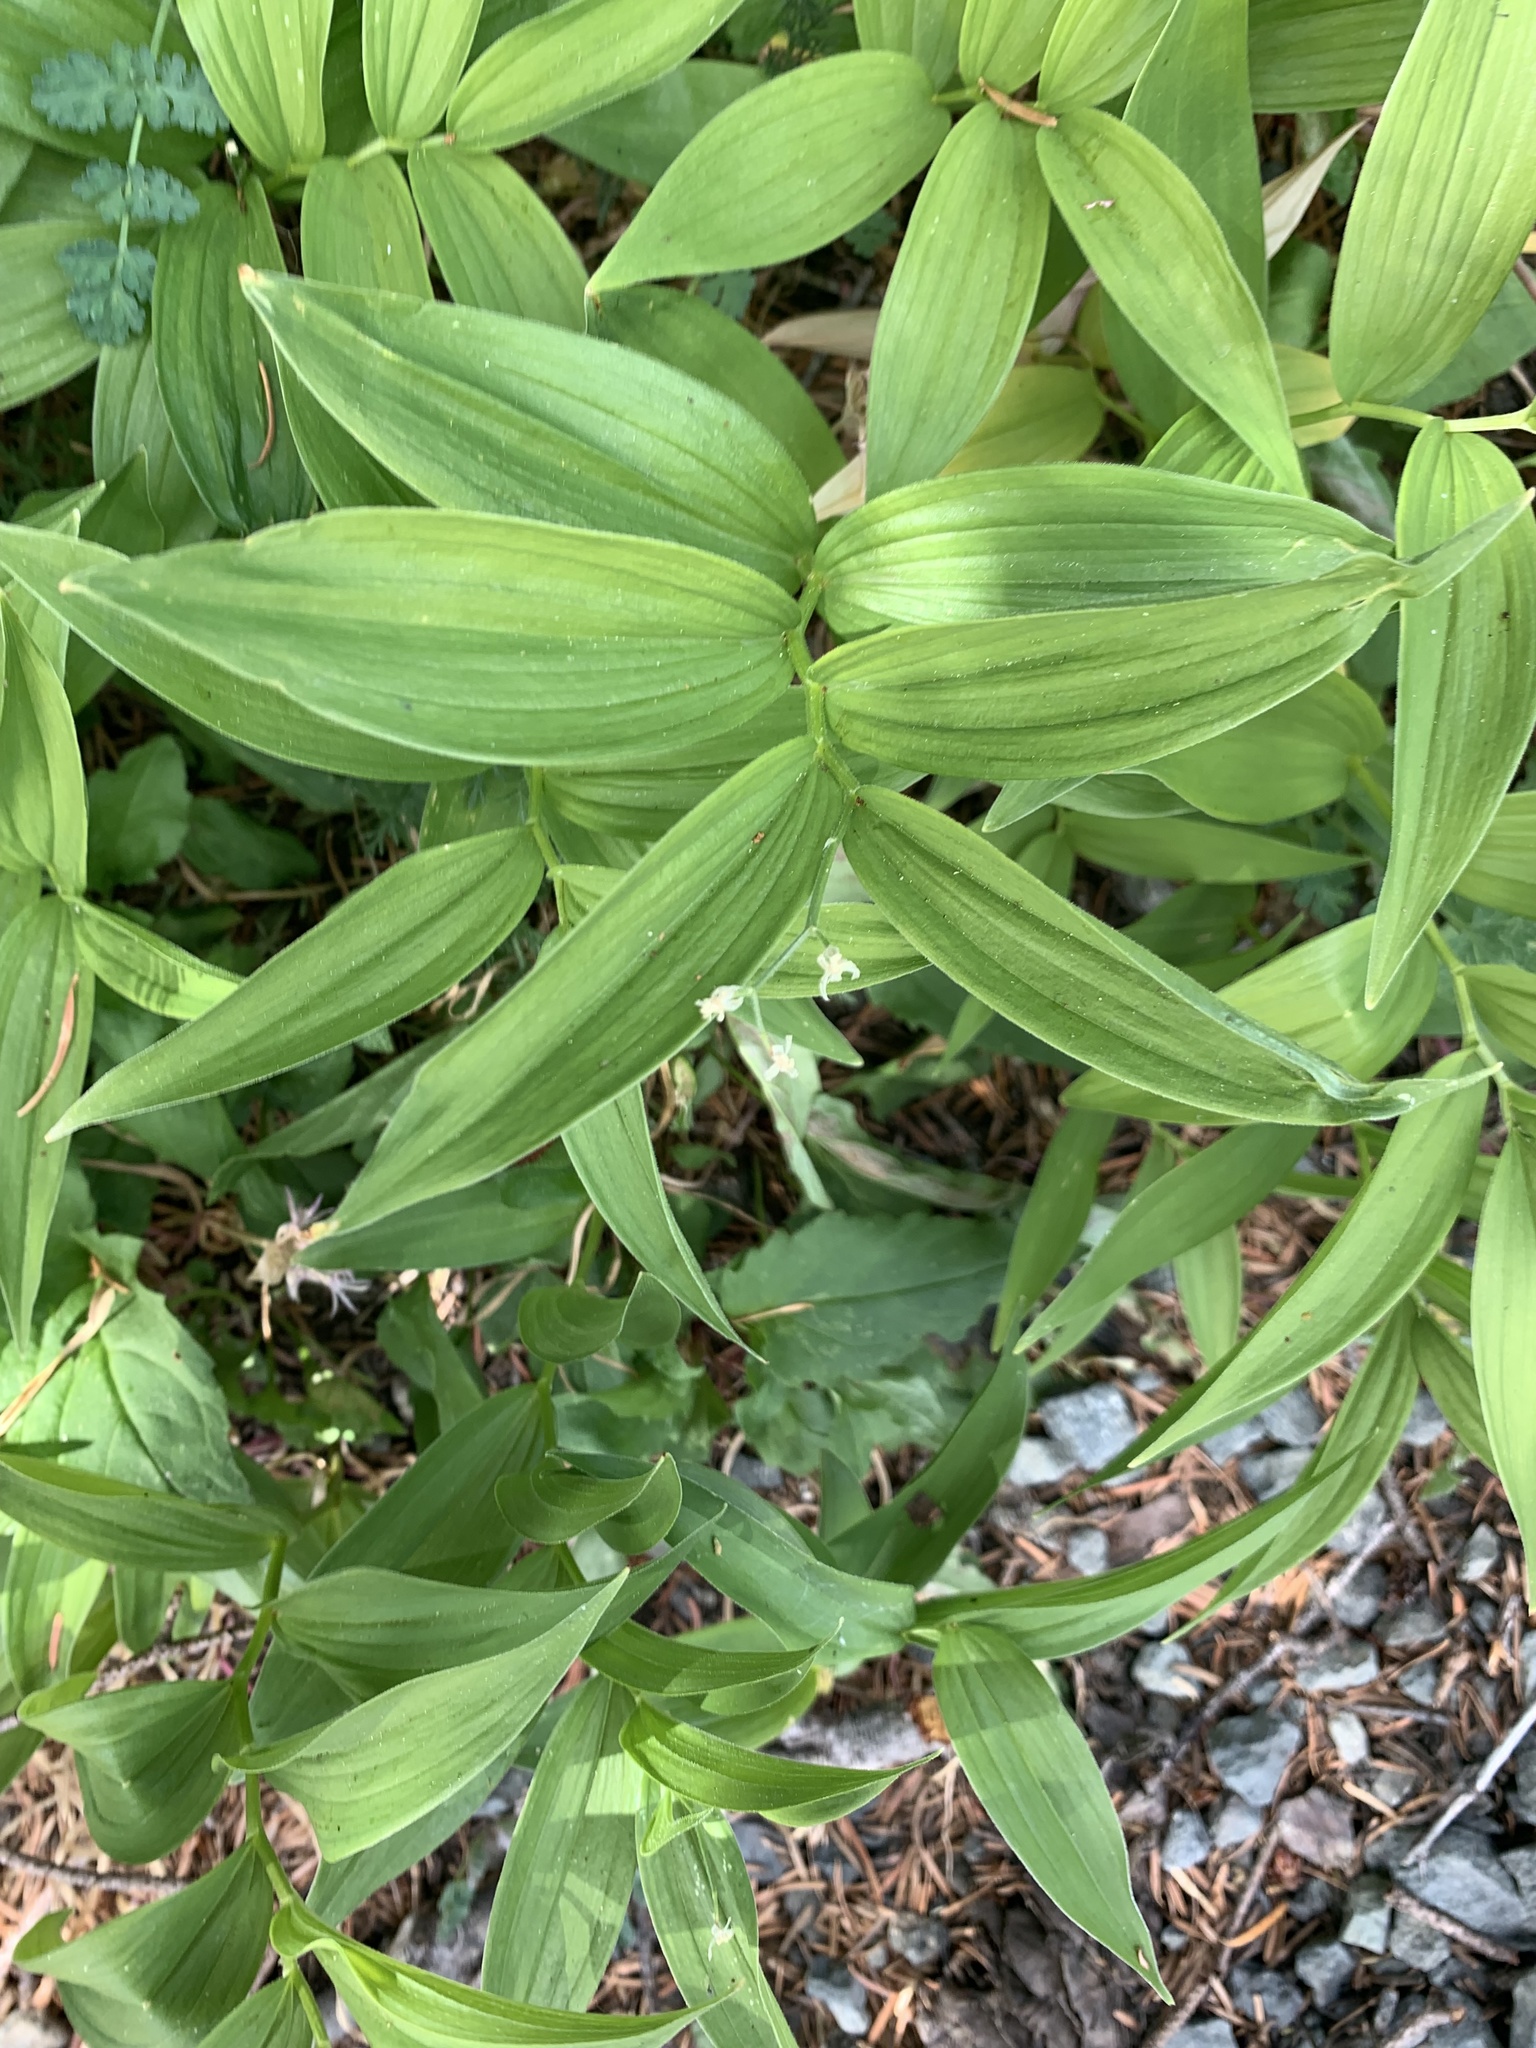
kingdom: Plantae
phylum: Tracheophyta
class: Liliopsida
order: Asparagales
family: Asparagaceae
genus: Maianthemum
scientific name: Maianthemum stellatum
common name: Little false solomon's seal
